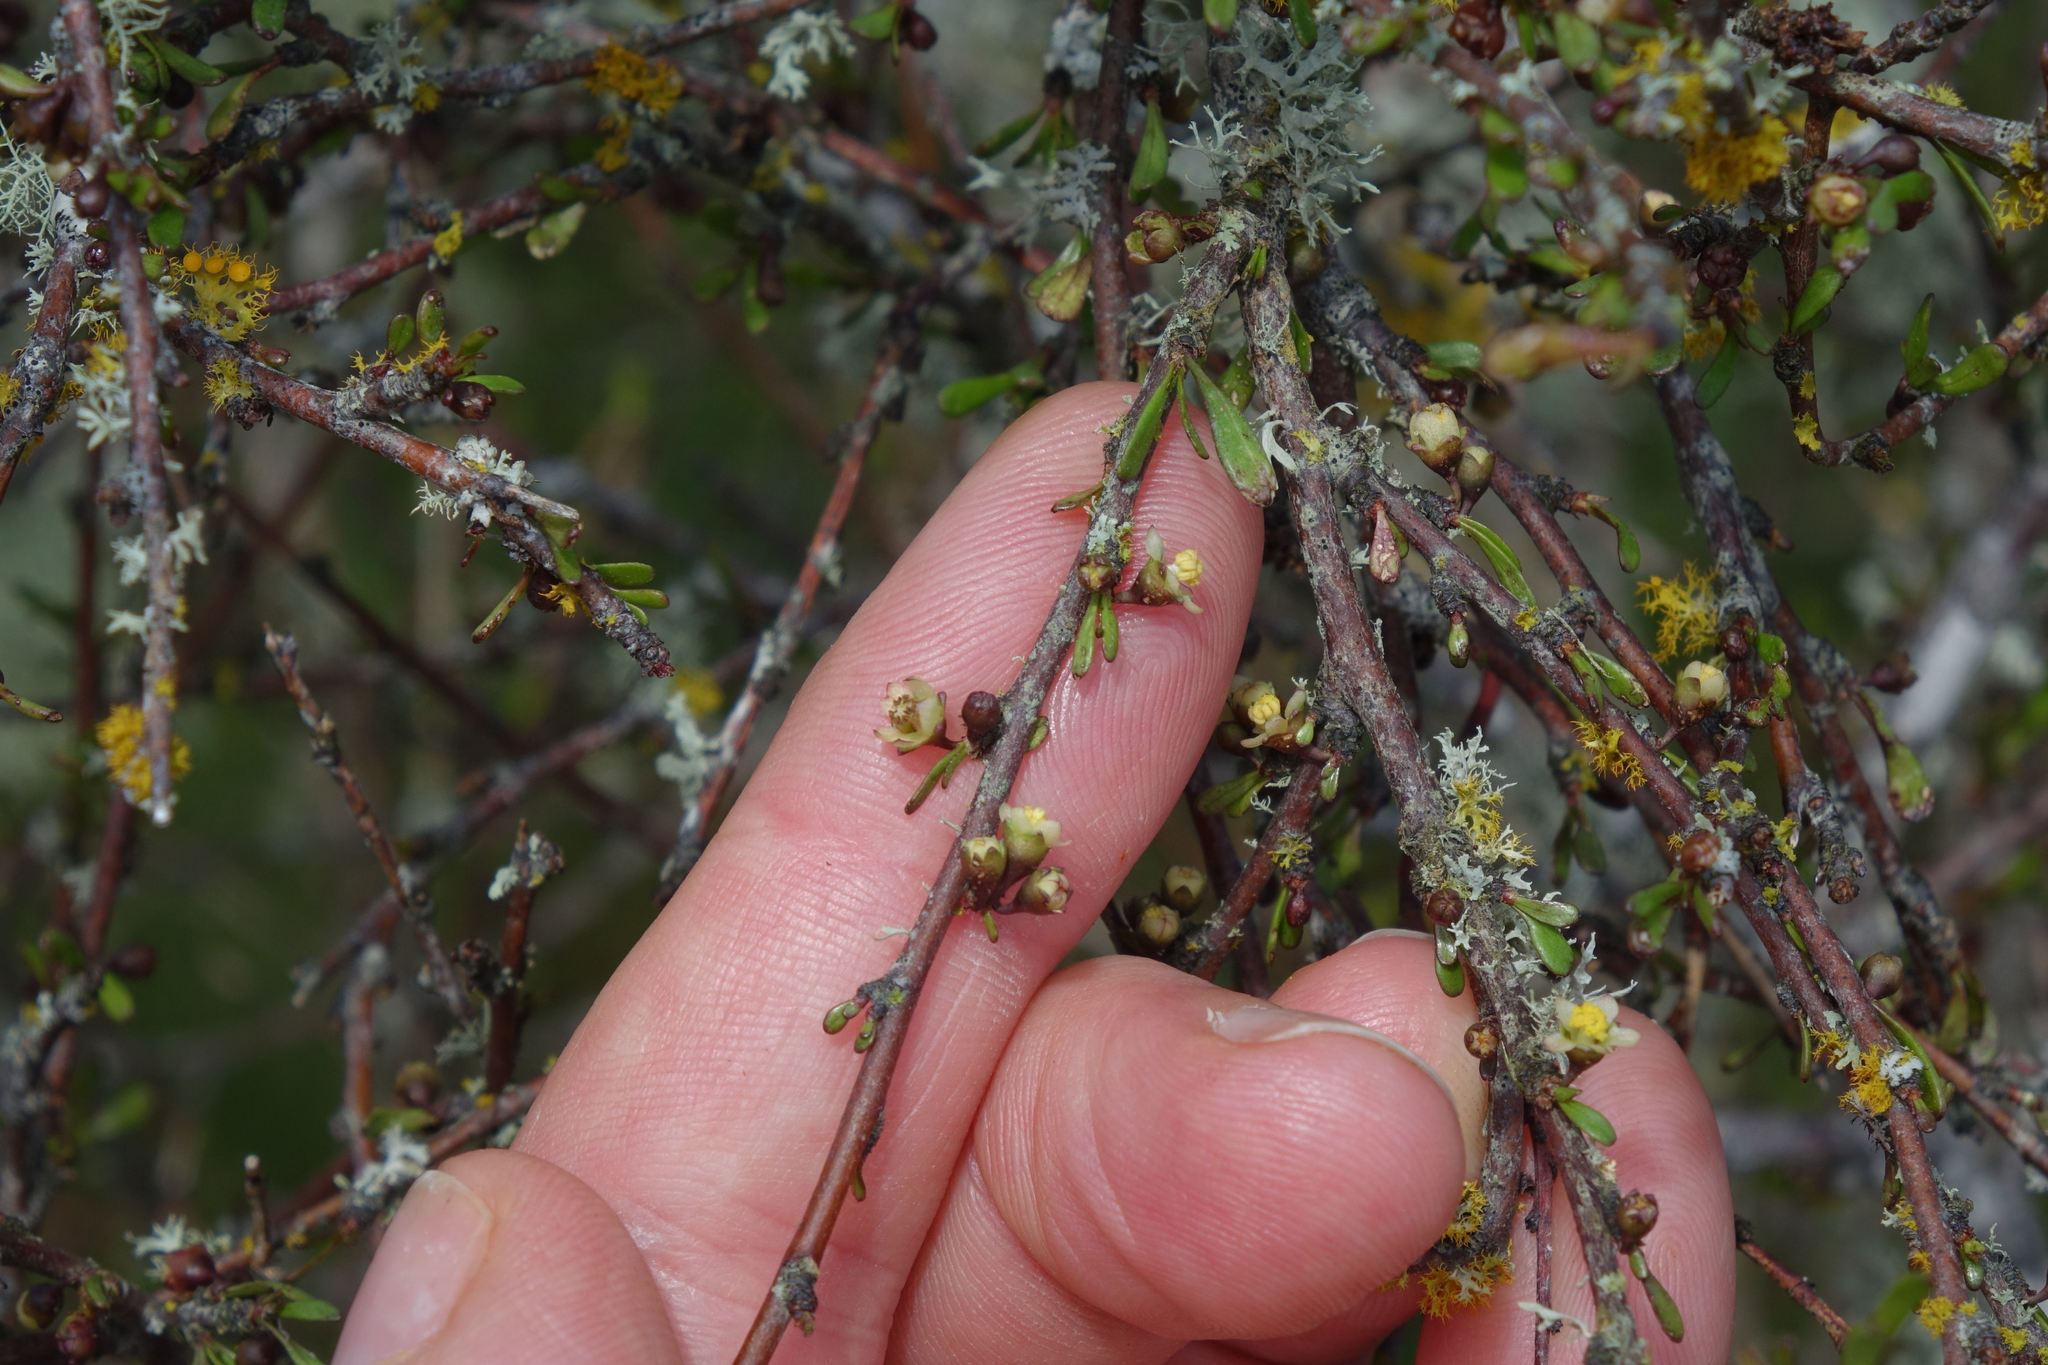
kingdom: Plantae
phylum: Tracheophyta
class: Magnoliopsida
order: Malvales
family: Malvaceae
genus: Plagianthus
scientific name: Plagianthus divaricatus
